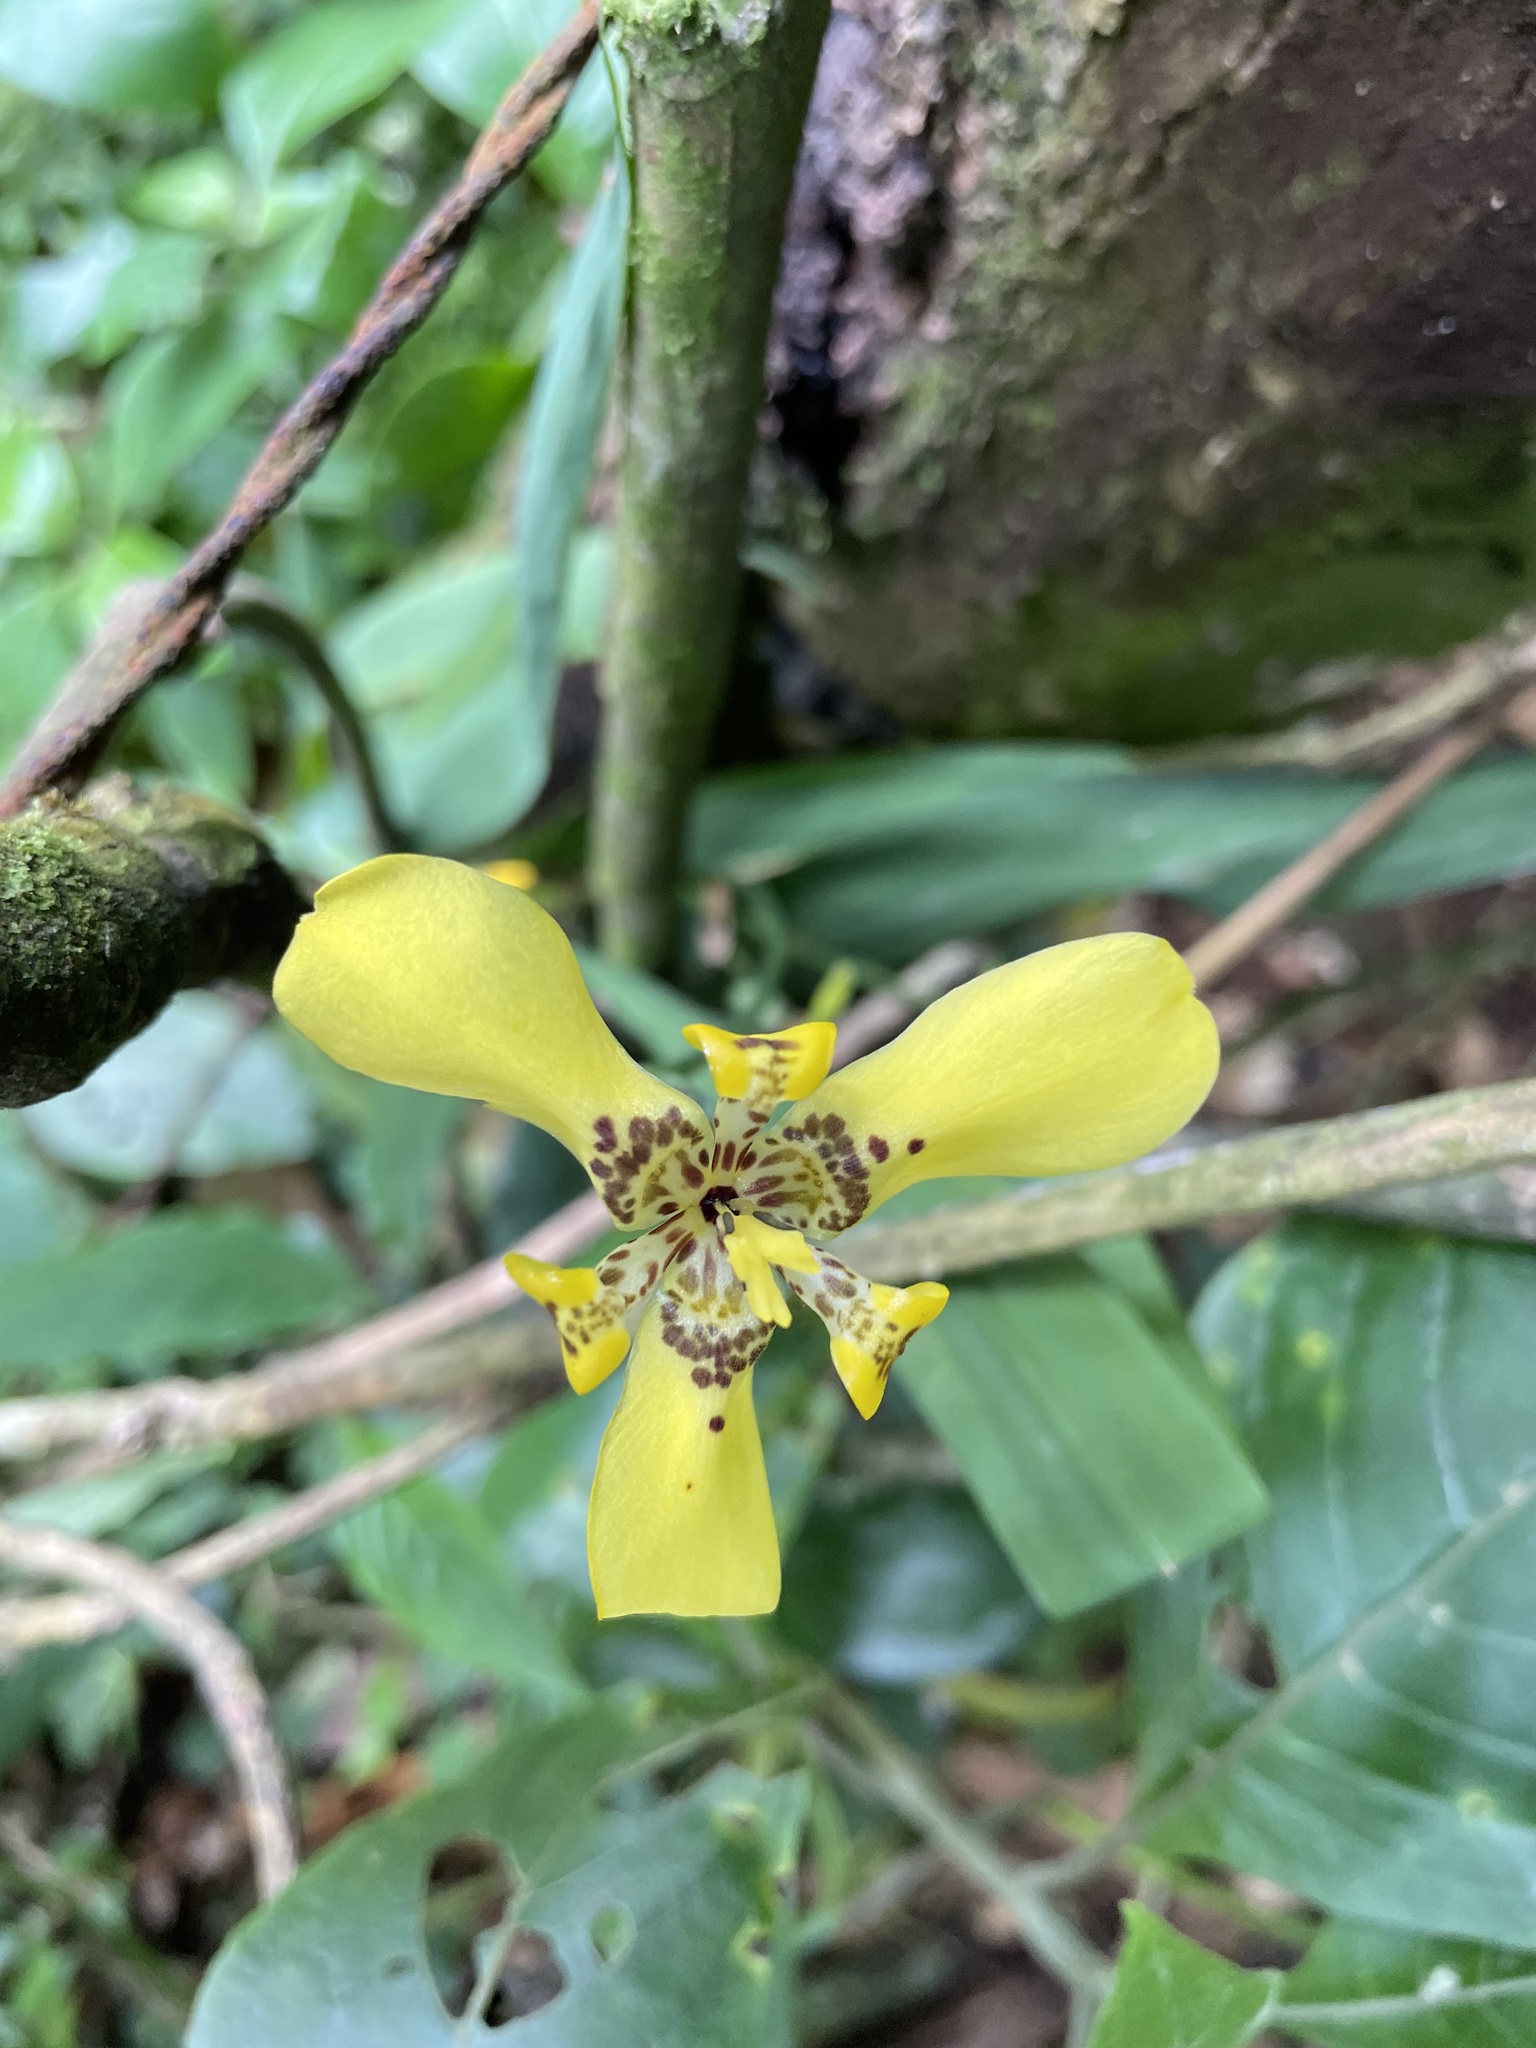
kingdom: Plantae
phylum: Tracheophyta
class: Liliopsida
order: Asparagales
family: Iridaceae
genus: Trimezia
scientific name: Trimezia steyermarkii
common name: Trimezia
